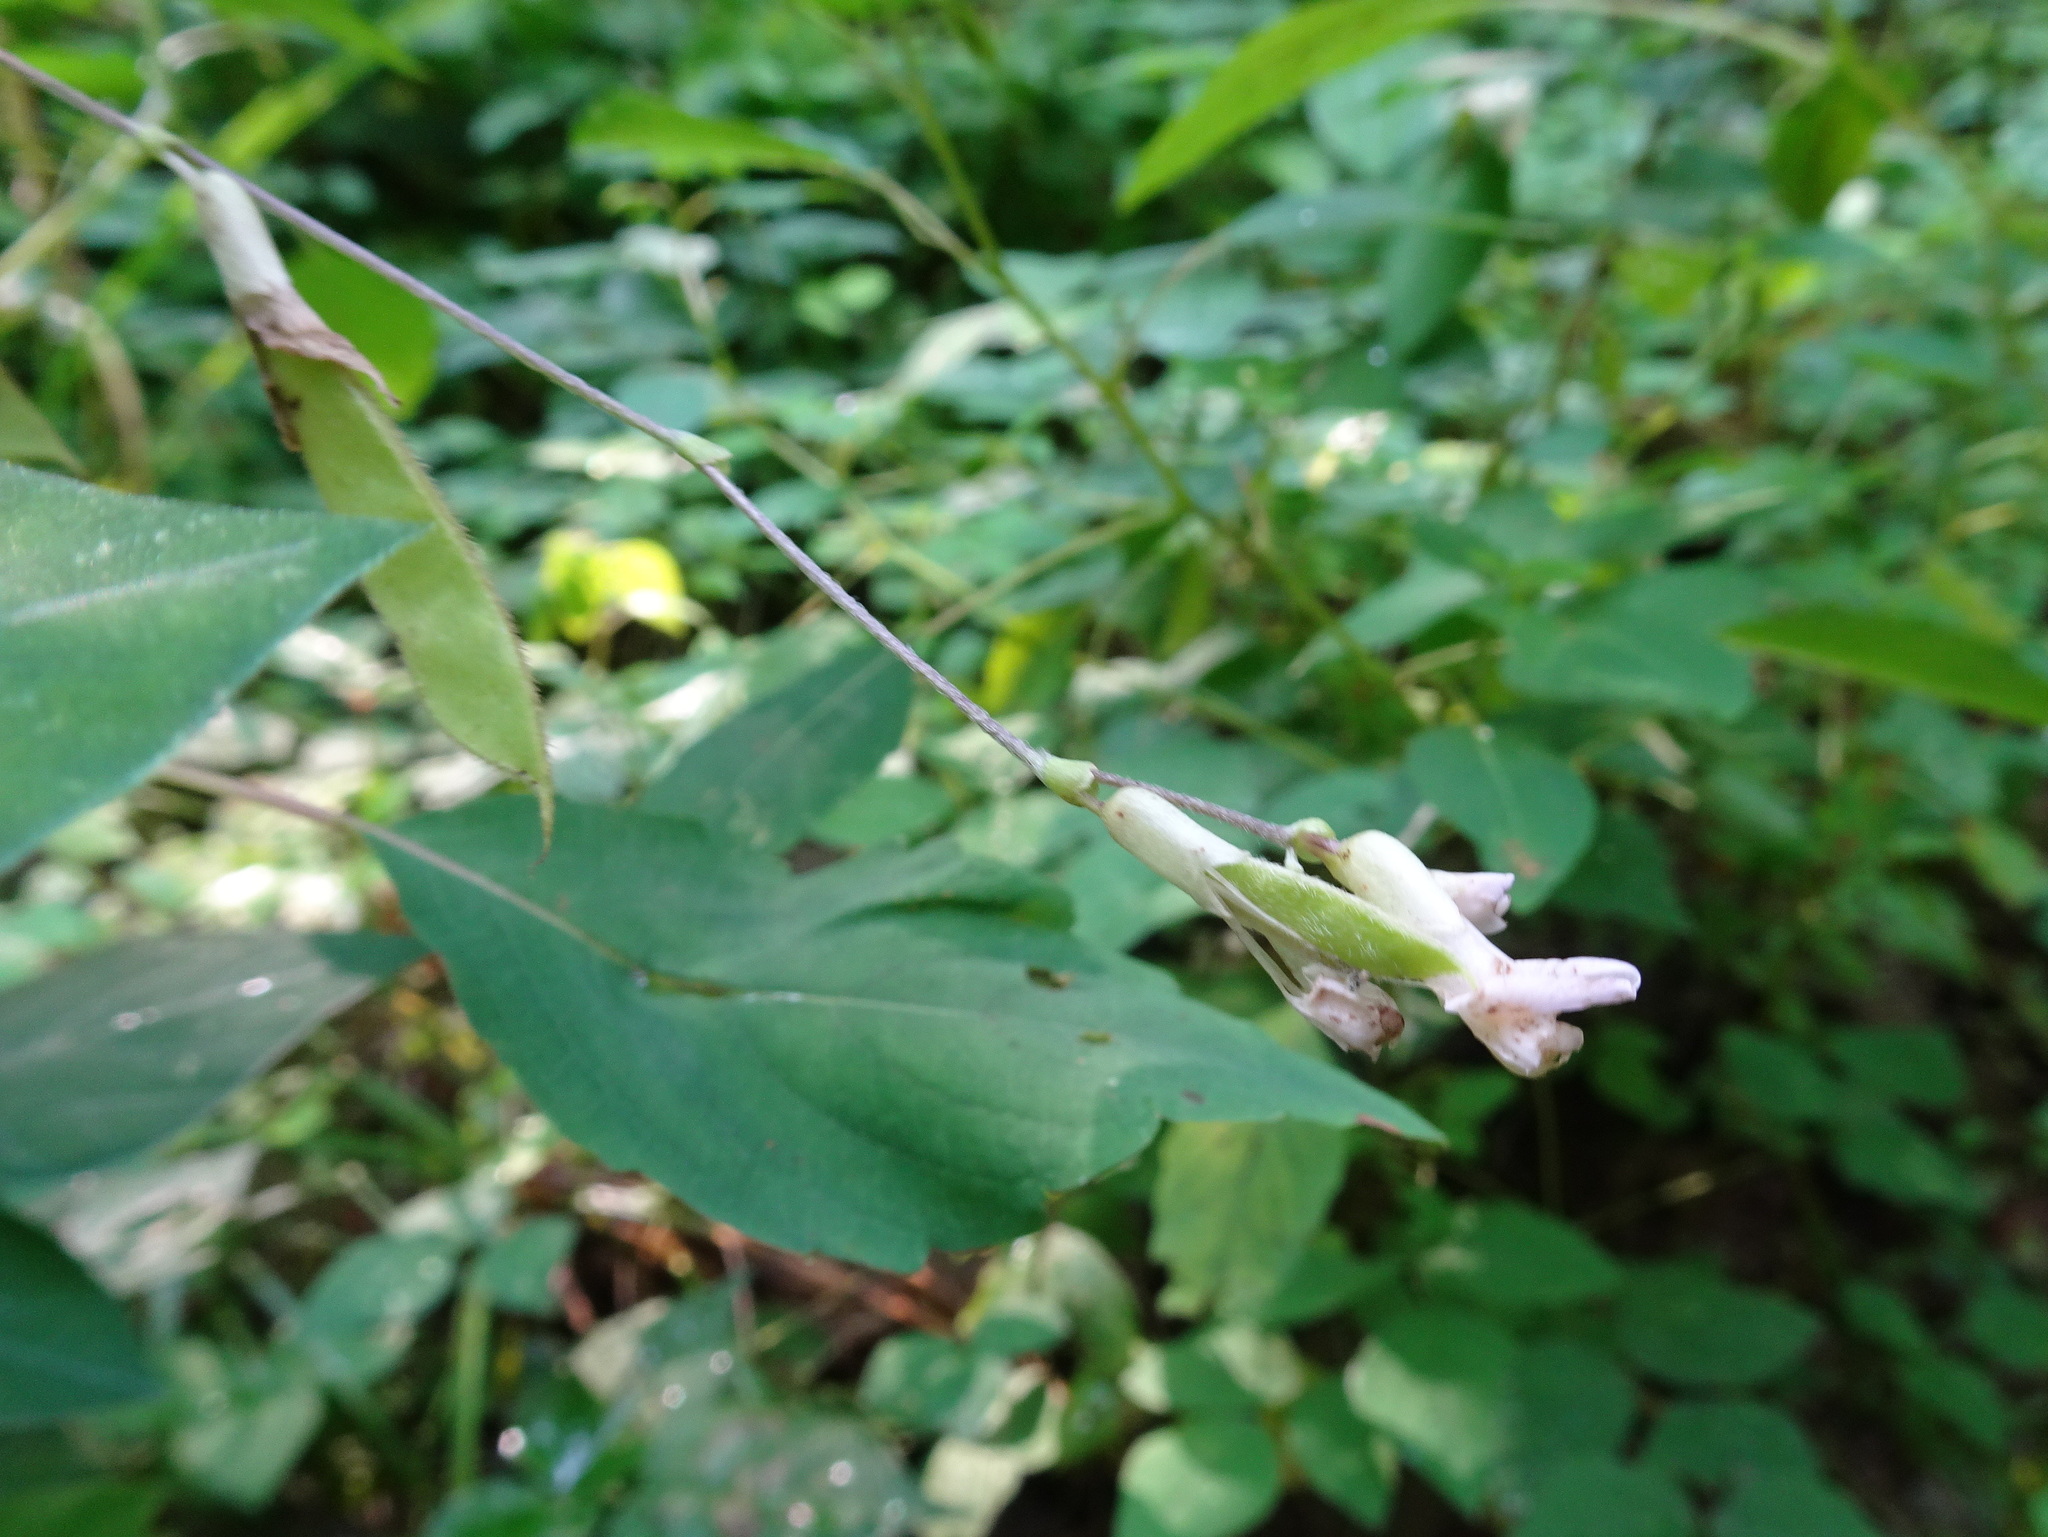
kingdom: Plantae
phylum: Tracheophyta
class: Magnoliopsida
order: Fabales
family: Fabaceae
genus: Amphicarpaea
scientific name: Amphicarpaea bracteata
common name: American hog peanut
